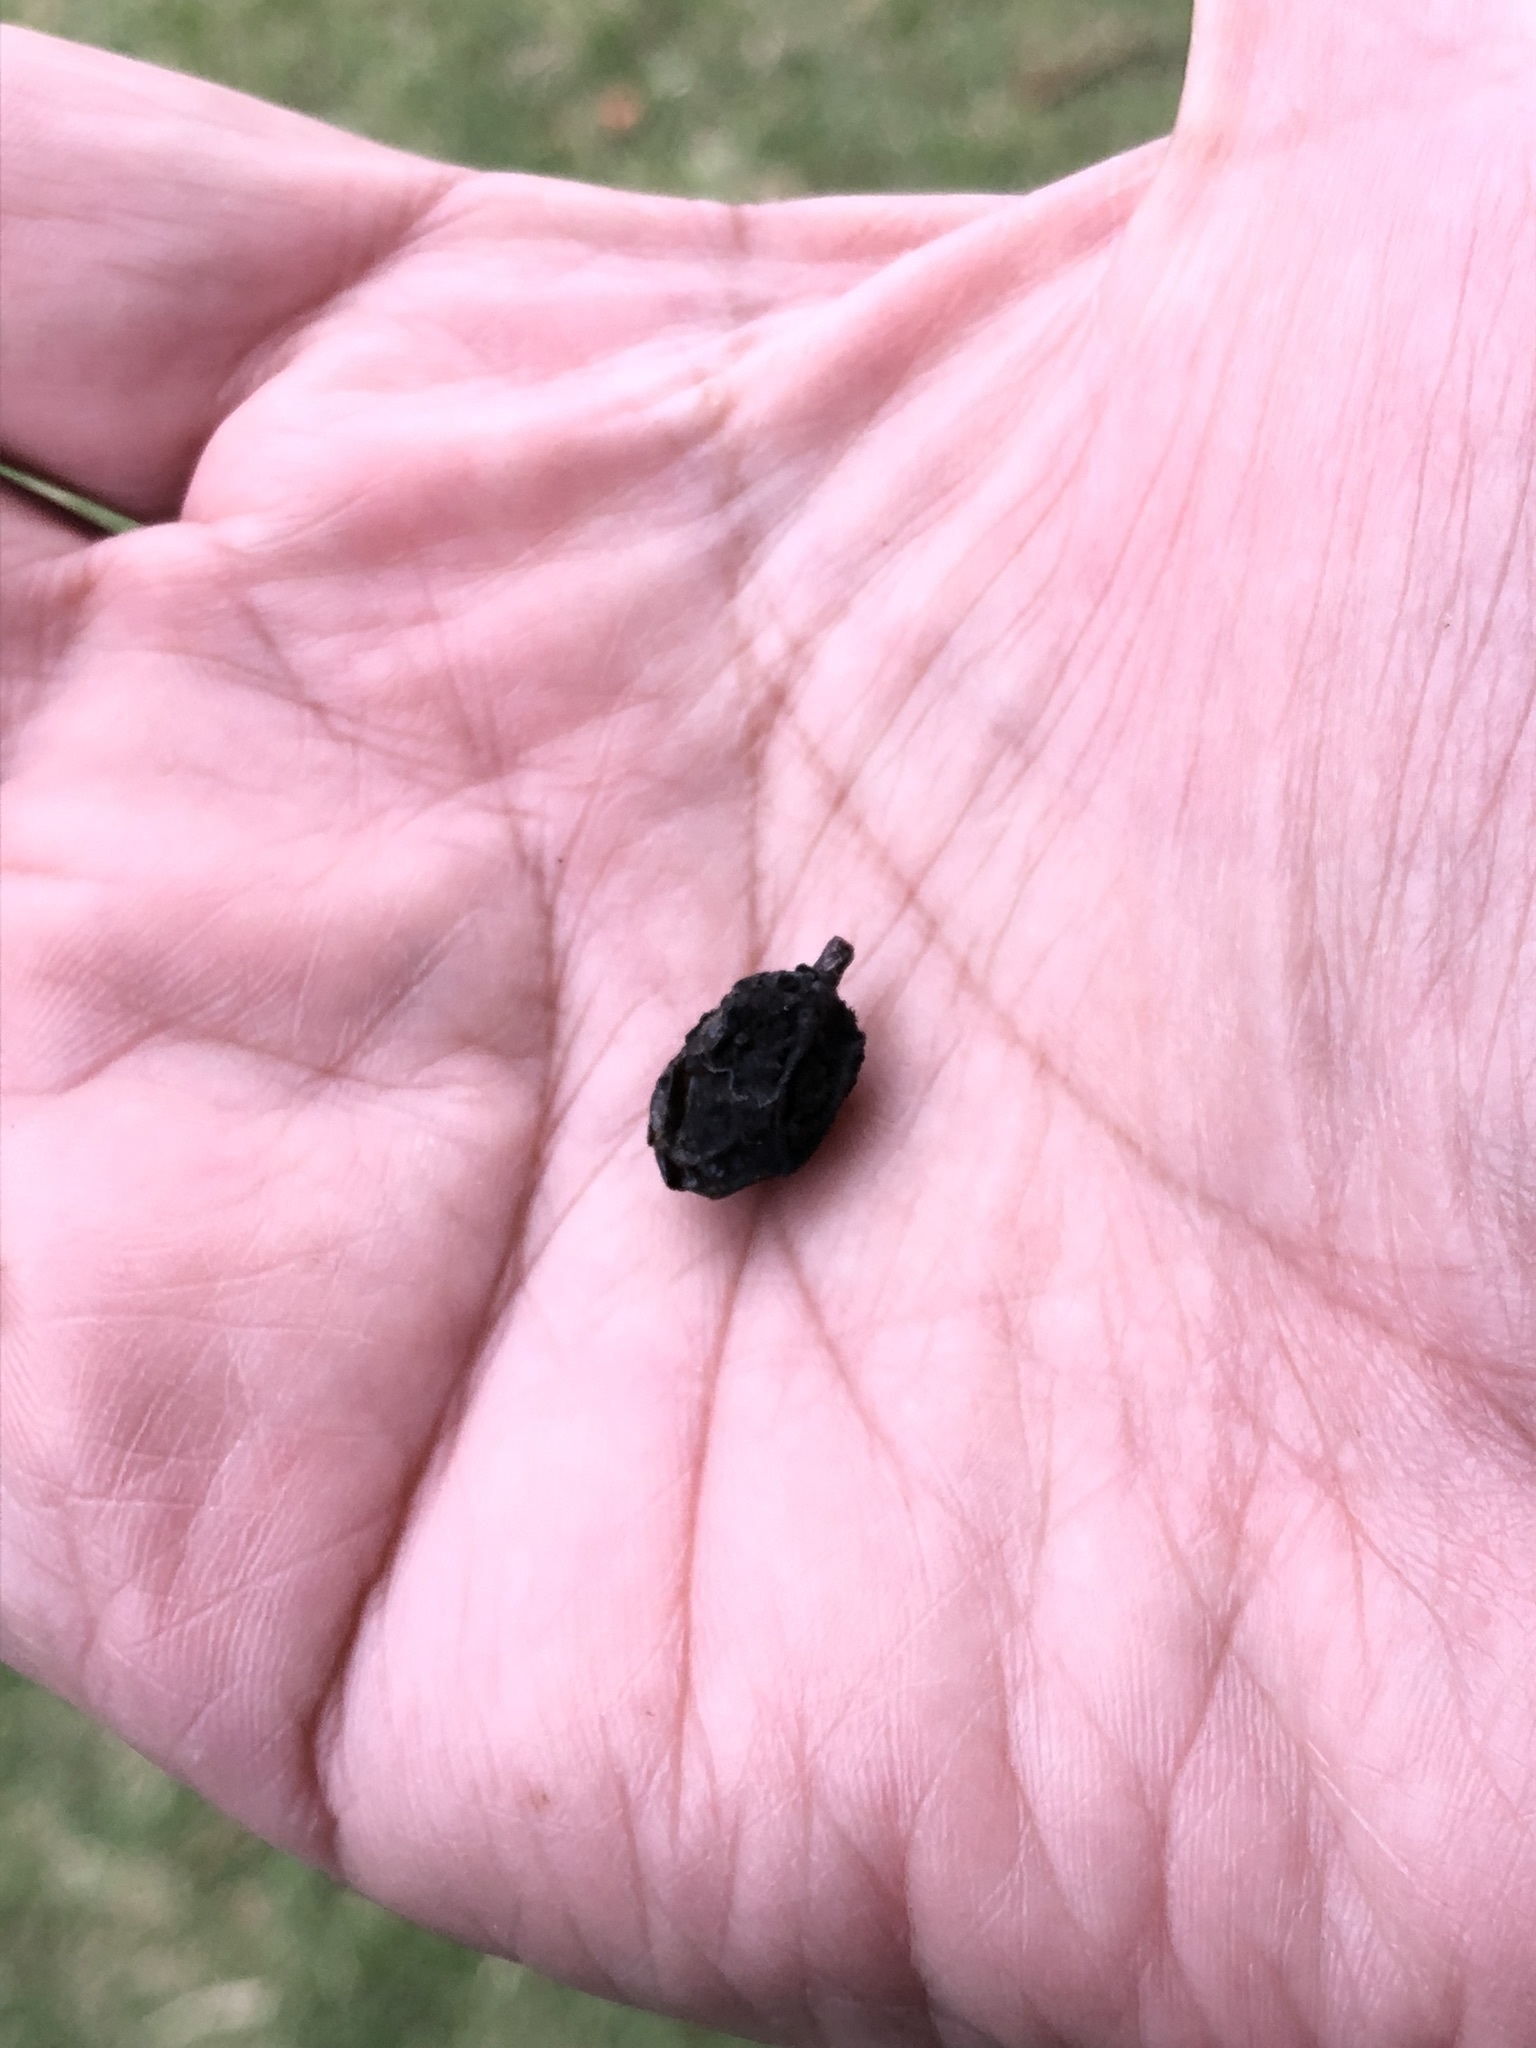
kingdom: Plantae
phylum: Tracheophyta
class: Magnoliopsida
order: Sapindales
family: Meliaceae
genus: Melia
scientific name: Melia azedarach
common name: Chinaberrytree
